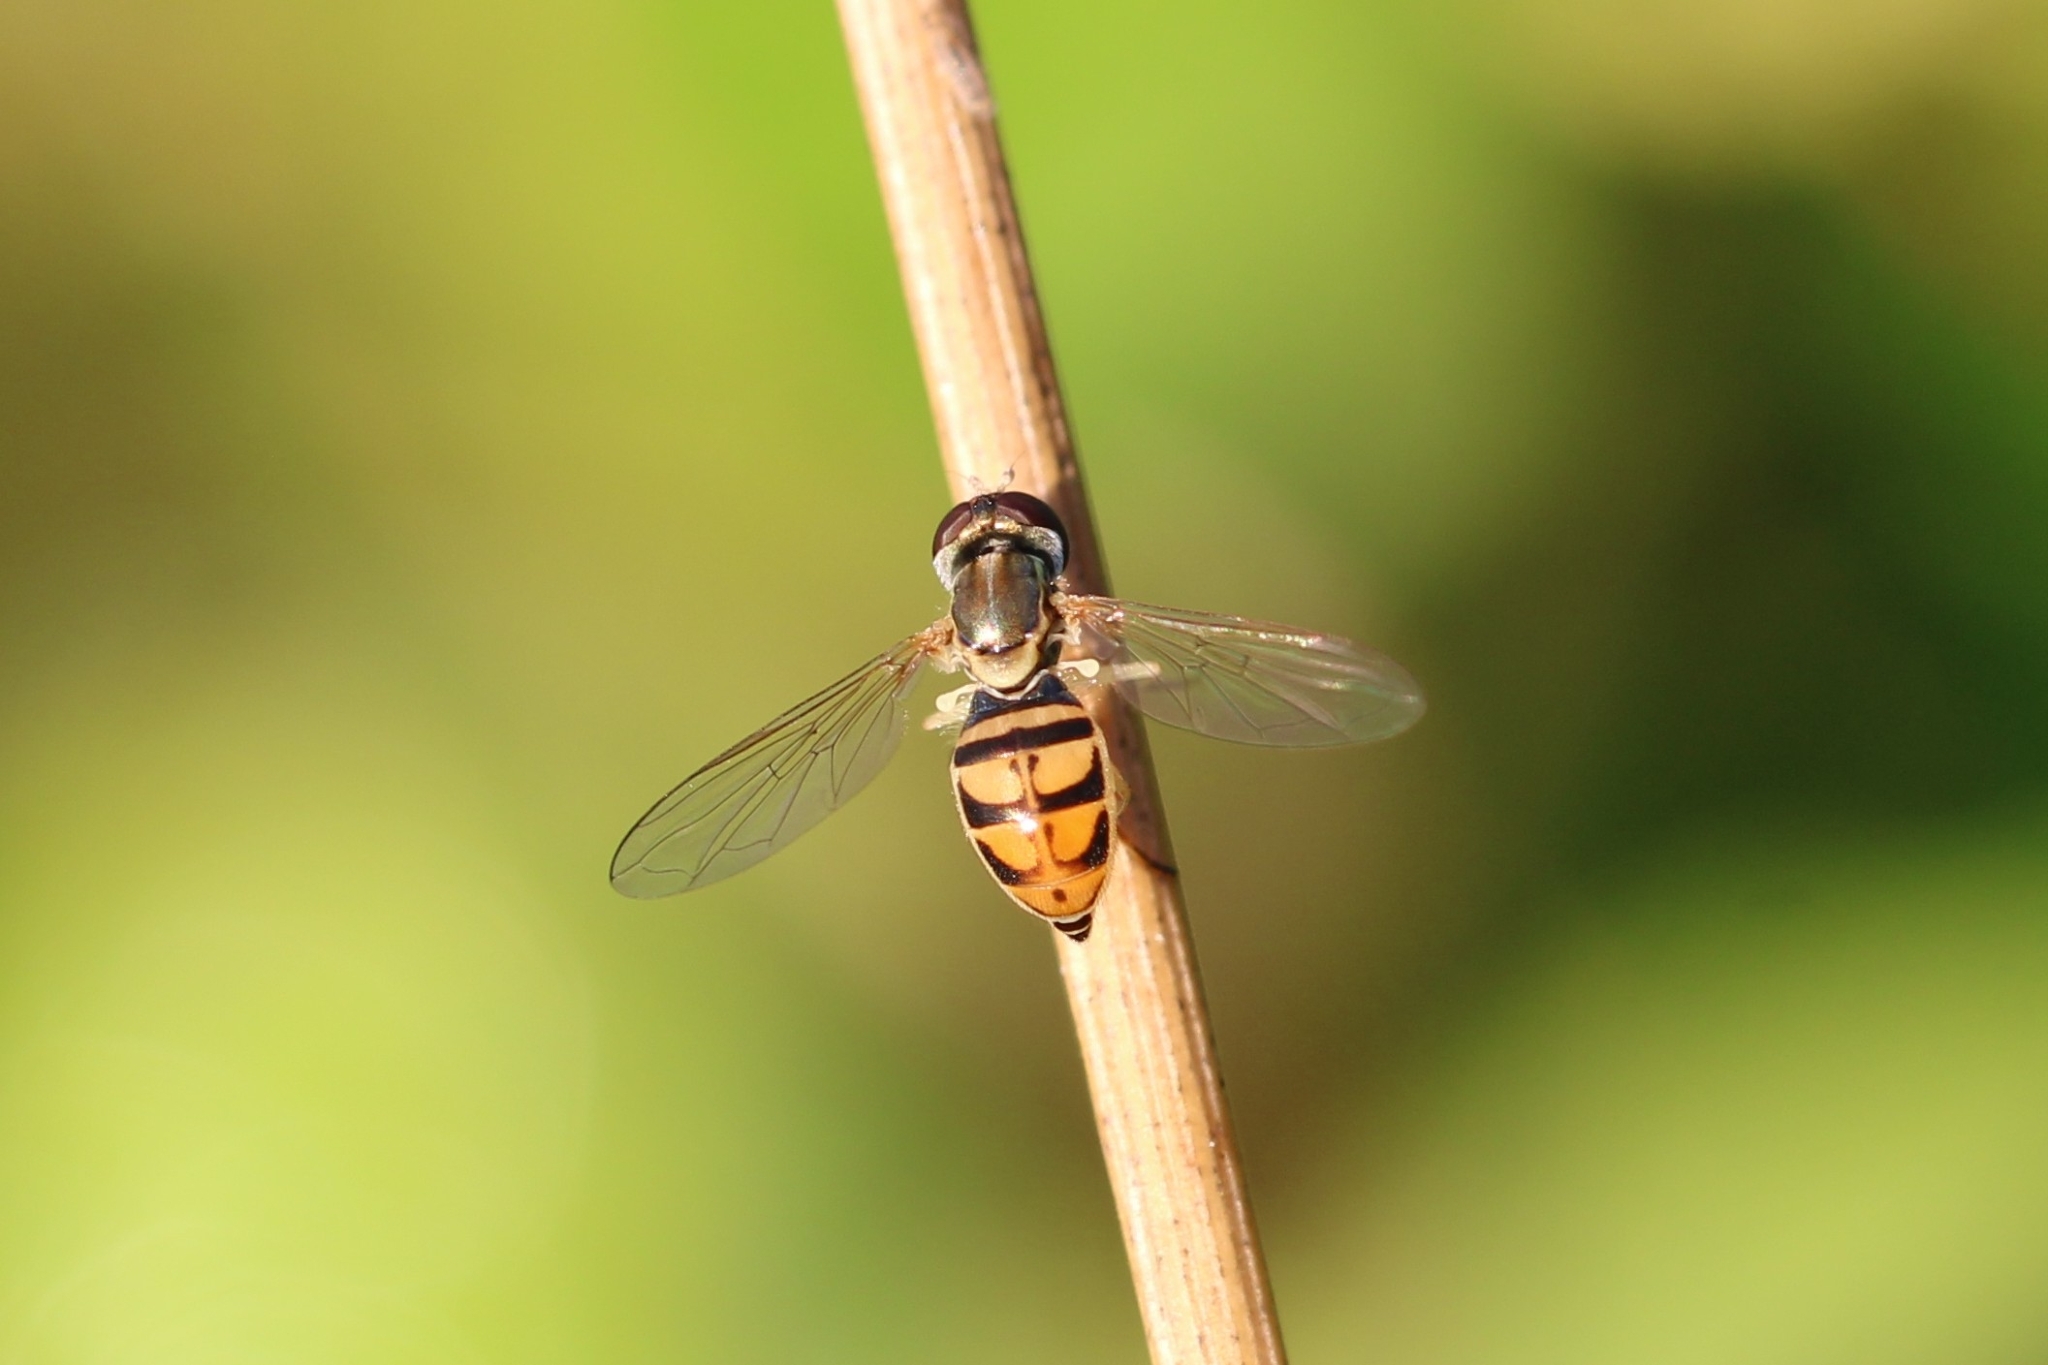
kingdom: Animalia
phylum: Arthropoda
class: Insecta
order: Diptera
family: Syrphidae
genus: Toxomerus
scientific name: Toxomerus marginatus
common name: Syrphid fly
